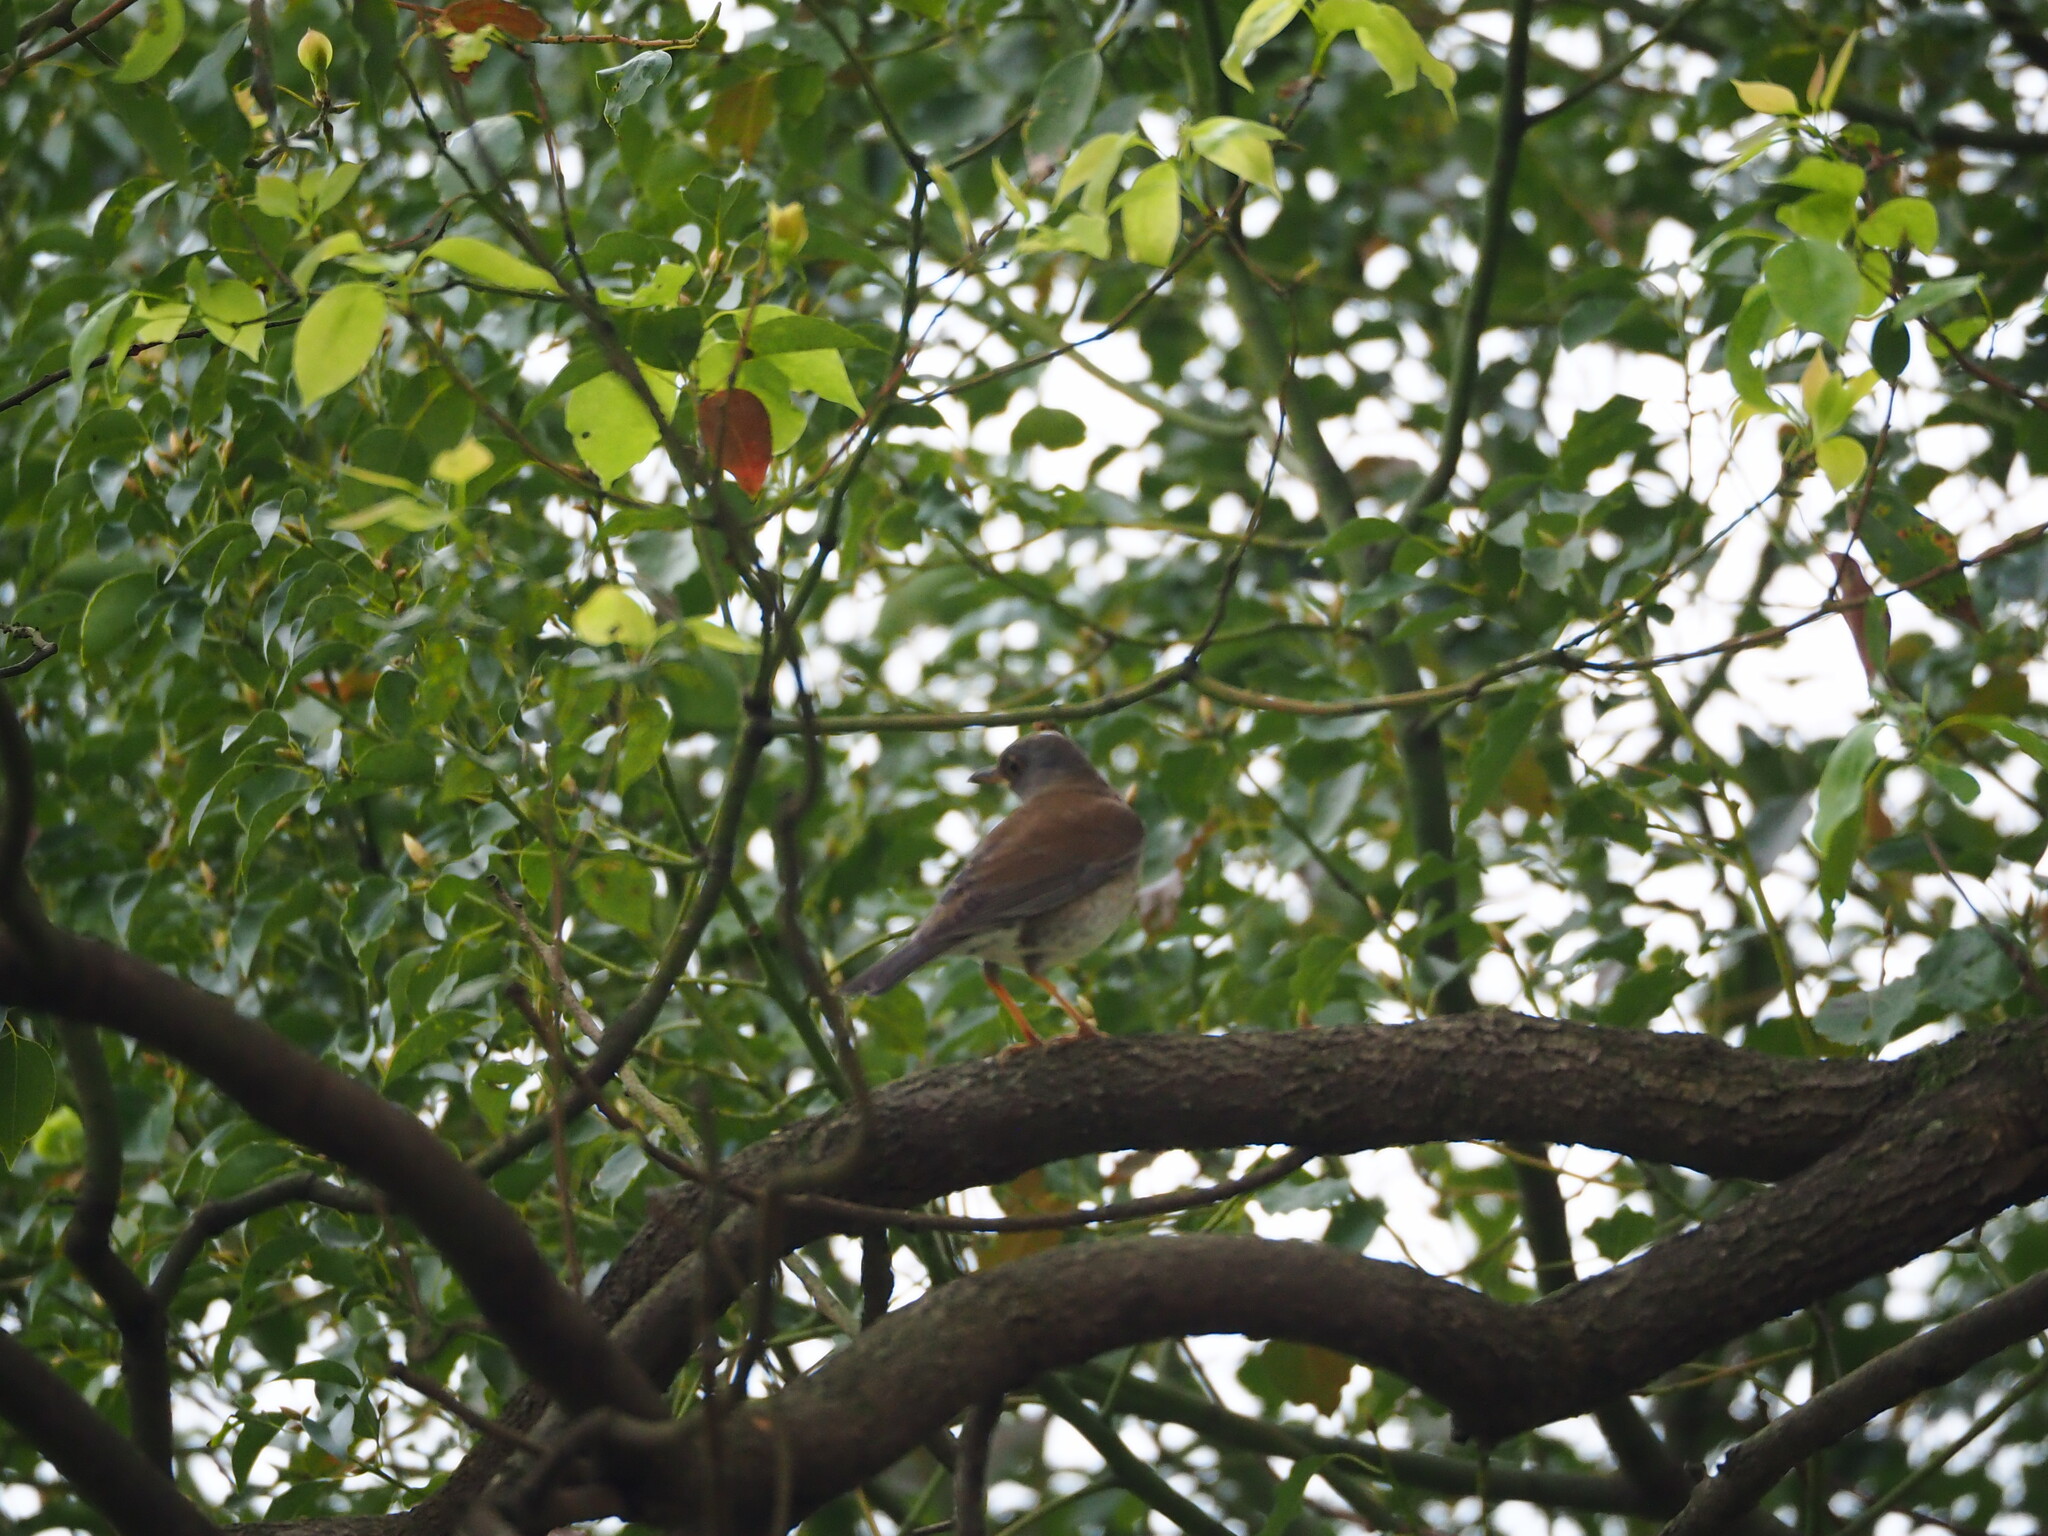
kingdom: Animalia
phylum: Chordata
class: Aves
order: Passeriformes
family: Turdidae
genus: Turdus
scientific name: Turdus pallidus
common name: Pale thrush
